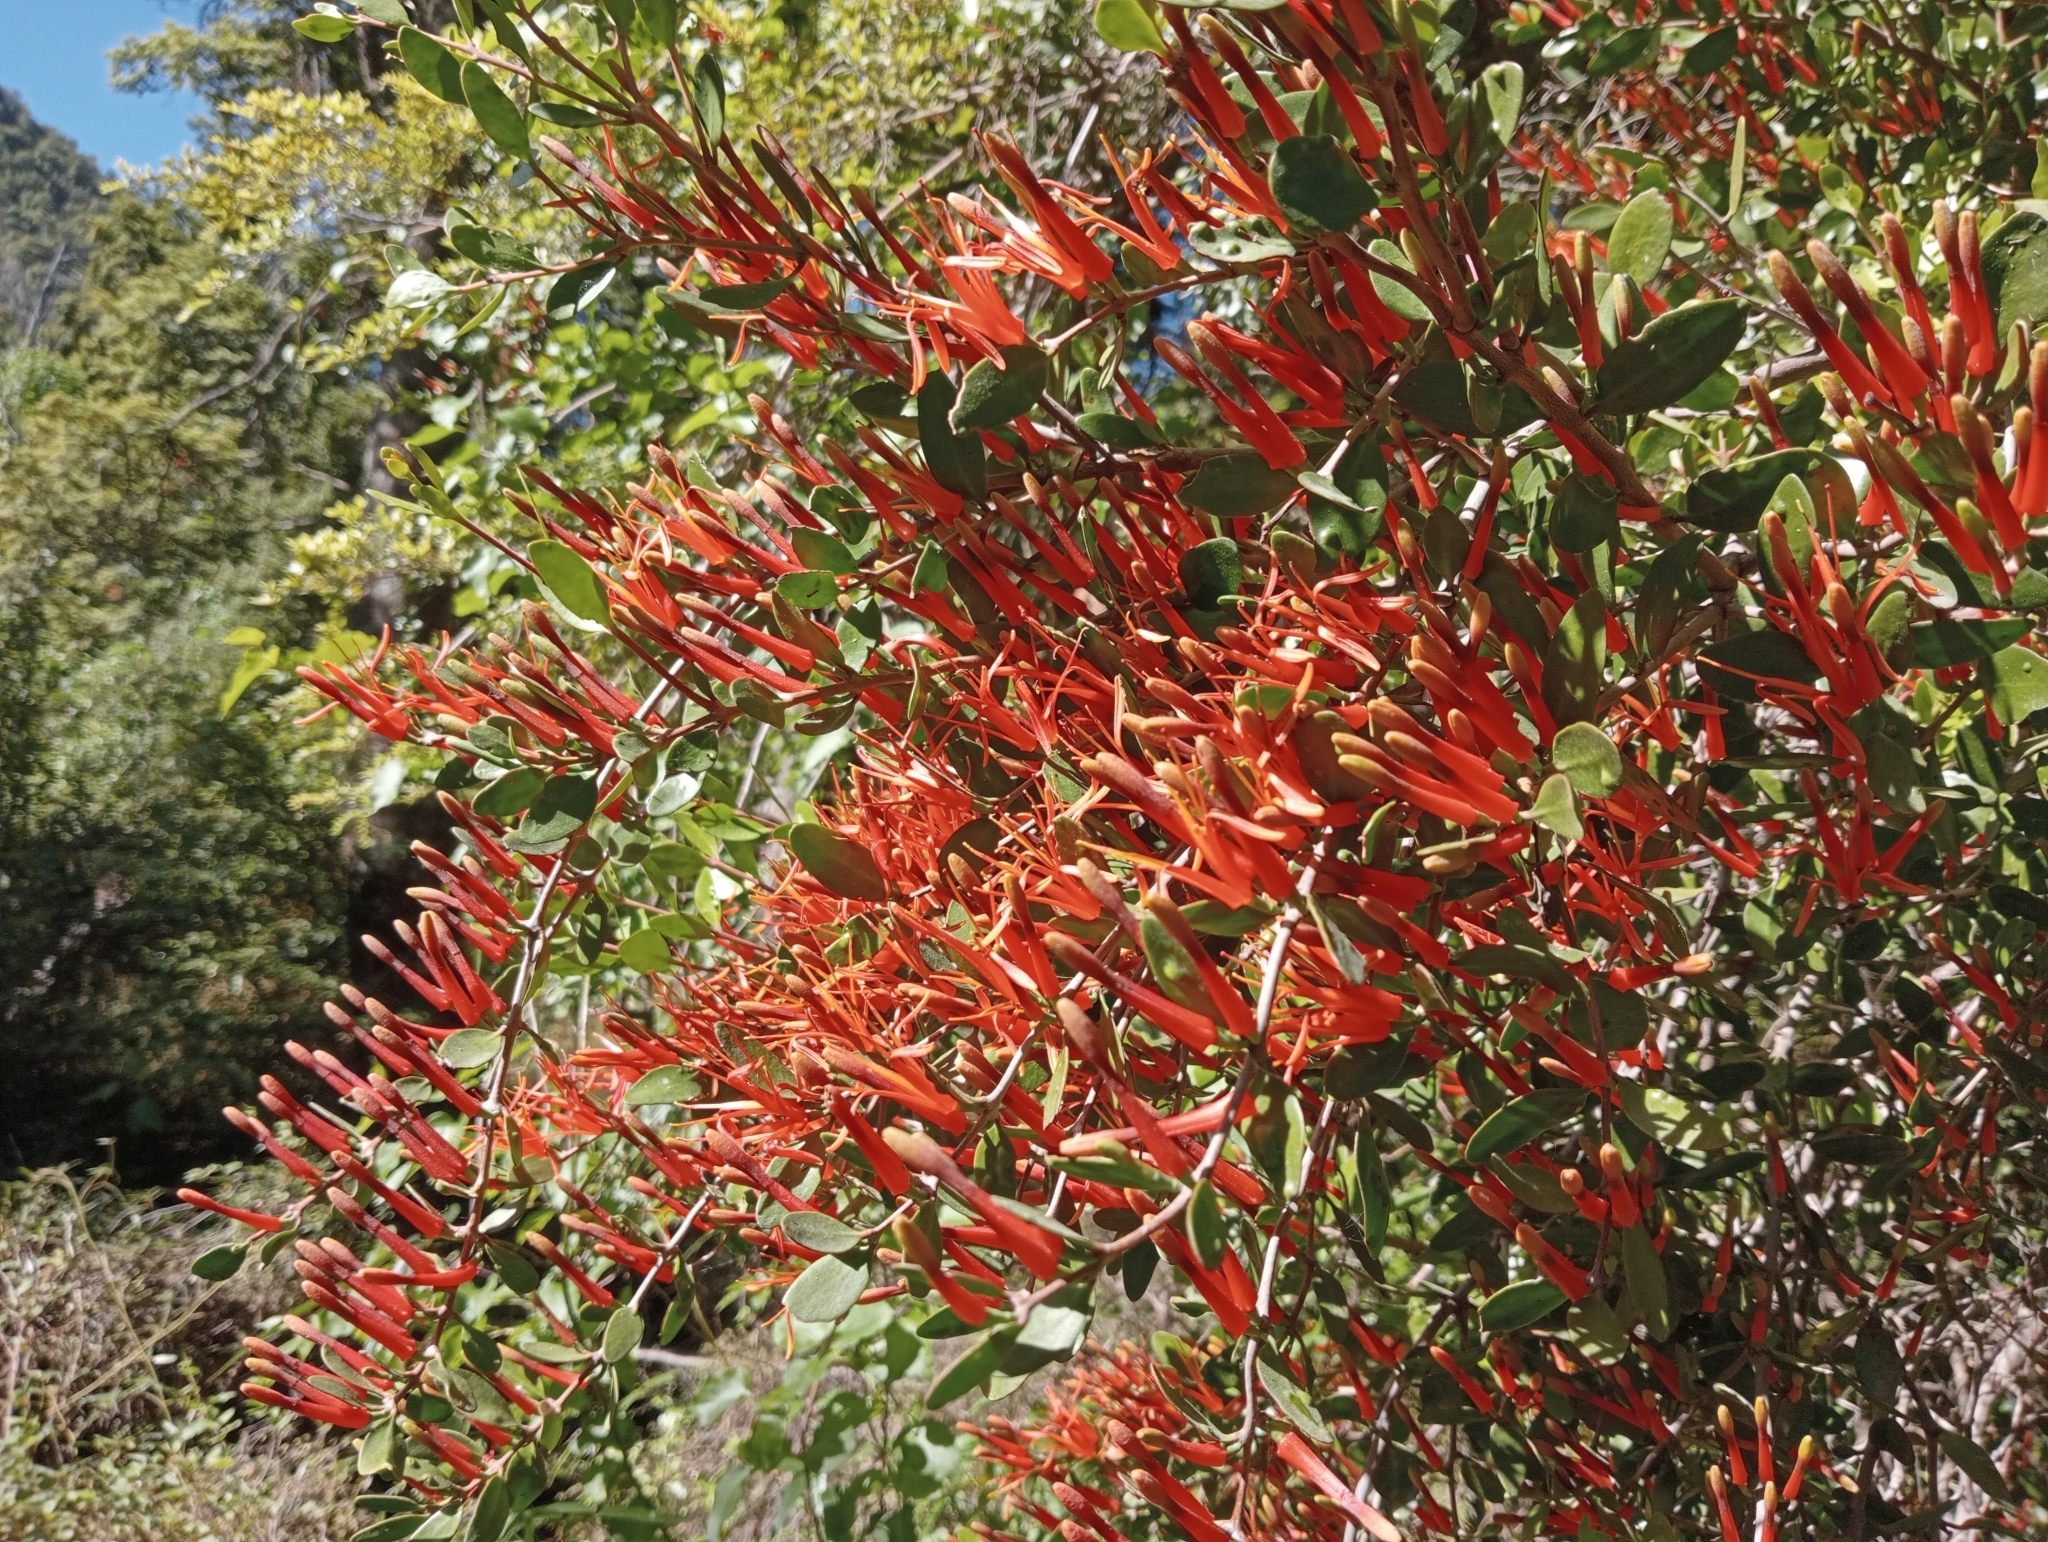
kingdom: Plantae
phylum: Tracheophyta
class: Magnoliopsida
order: Santalales
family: Loranthaceae
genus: Peraxilla
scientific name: Peraxilla tetrapetala
